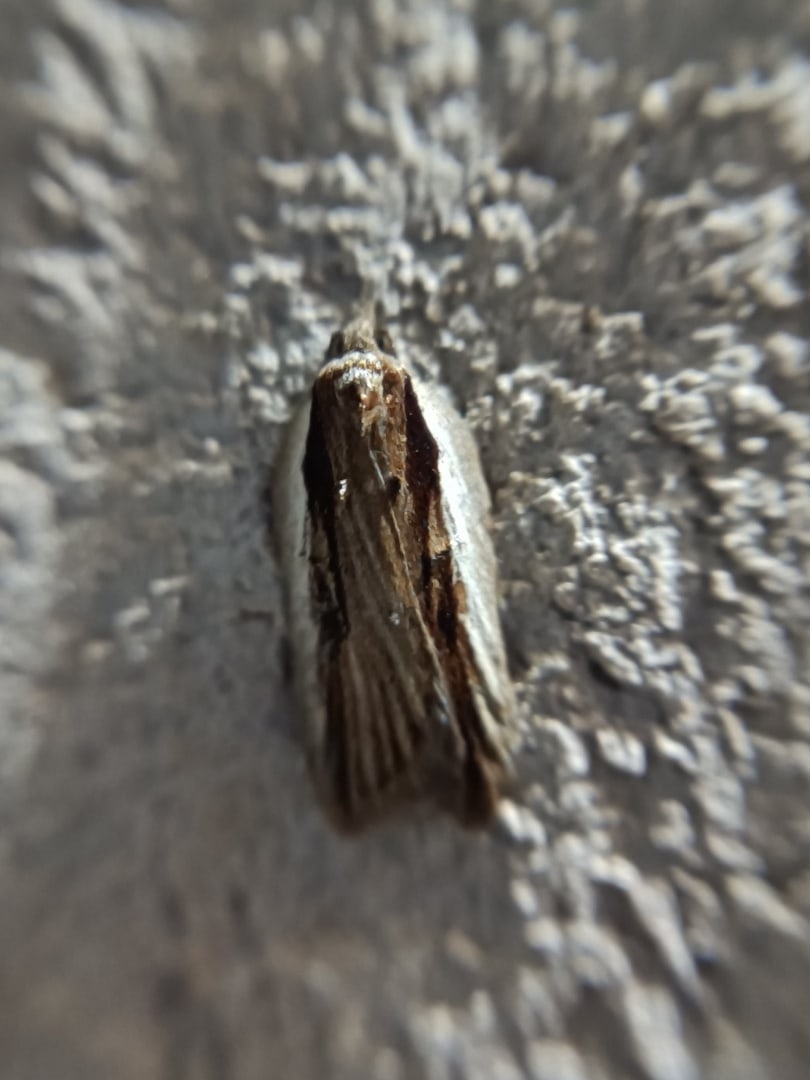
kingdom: Animalia
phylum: Arthropoda
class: Insecta
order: Lepidoptera
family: Tortricidae
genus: Acleris
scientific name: Acleris hastiana
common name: Sallow button
